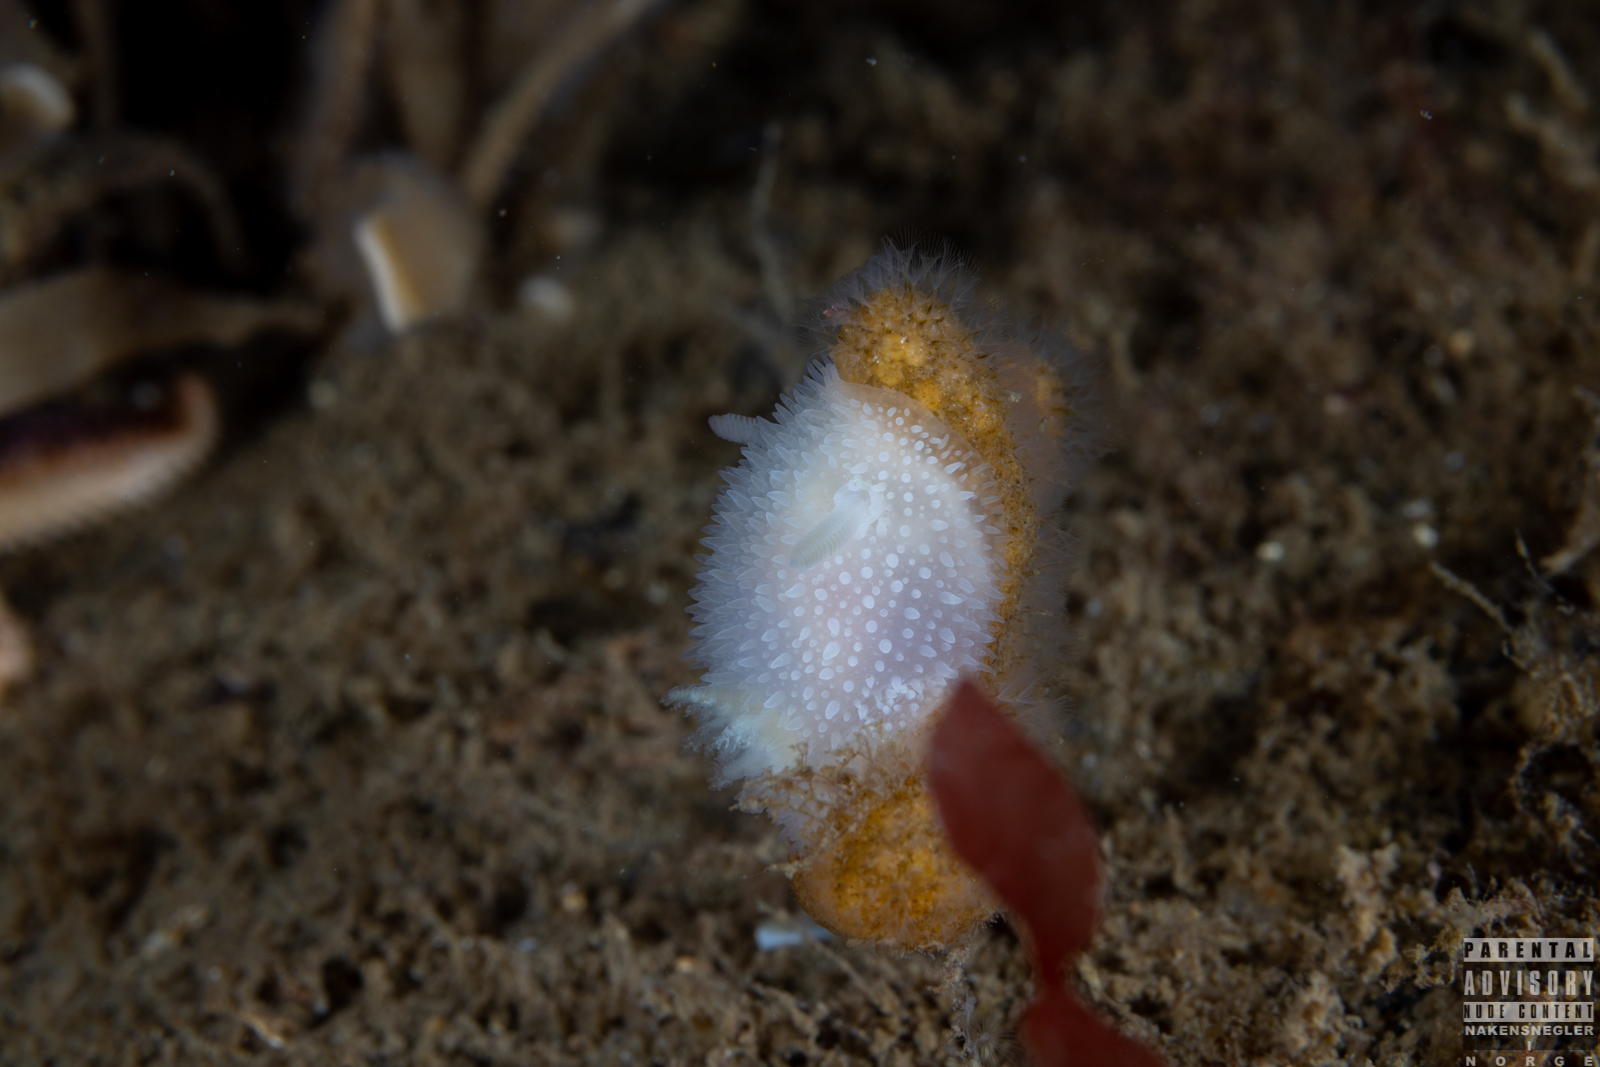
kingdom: Animalia
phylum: Mollusca
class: Gastropoda
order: Nudibranchia
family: Onchidorididae
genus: Acanthodoris
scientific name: Acanthodoris pilosa
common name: Hairy spiny doris
